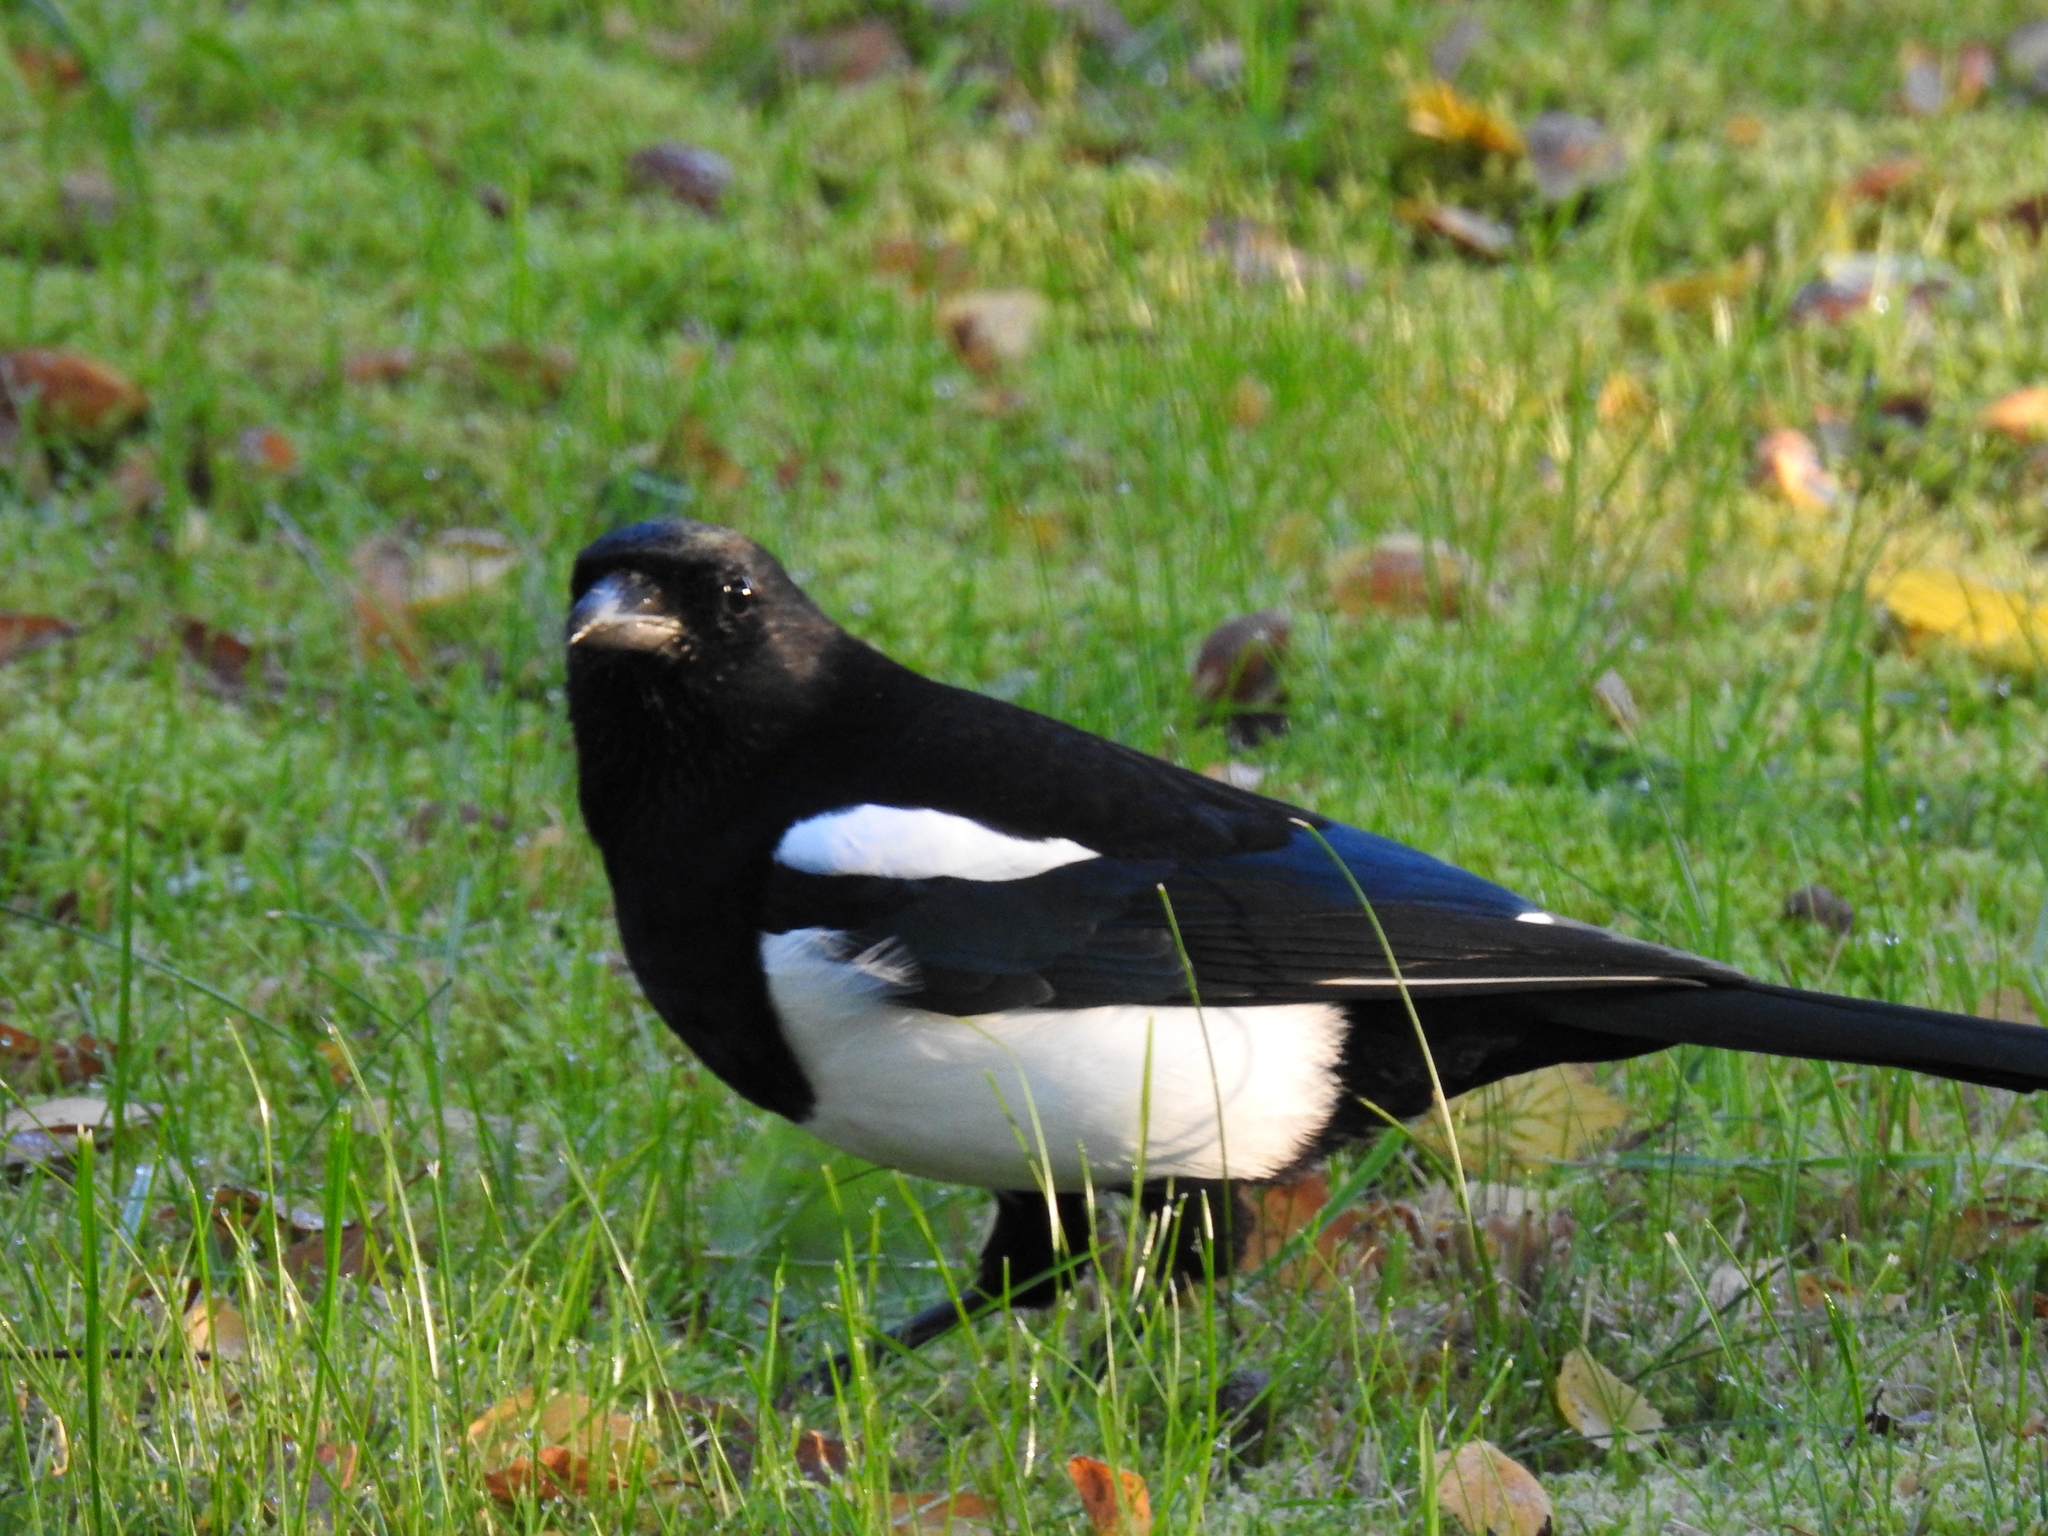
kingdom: Animalia
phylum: Chordata
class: Aves
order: Passeriformes
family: Corvidae
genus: Pica
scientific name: Pica pica
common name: Eurasian magpie
